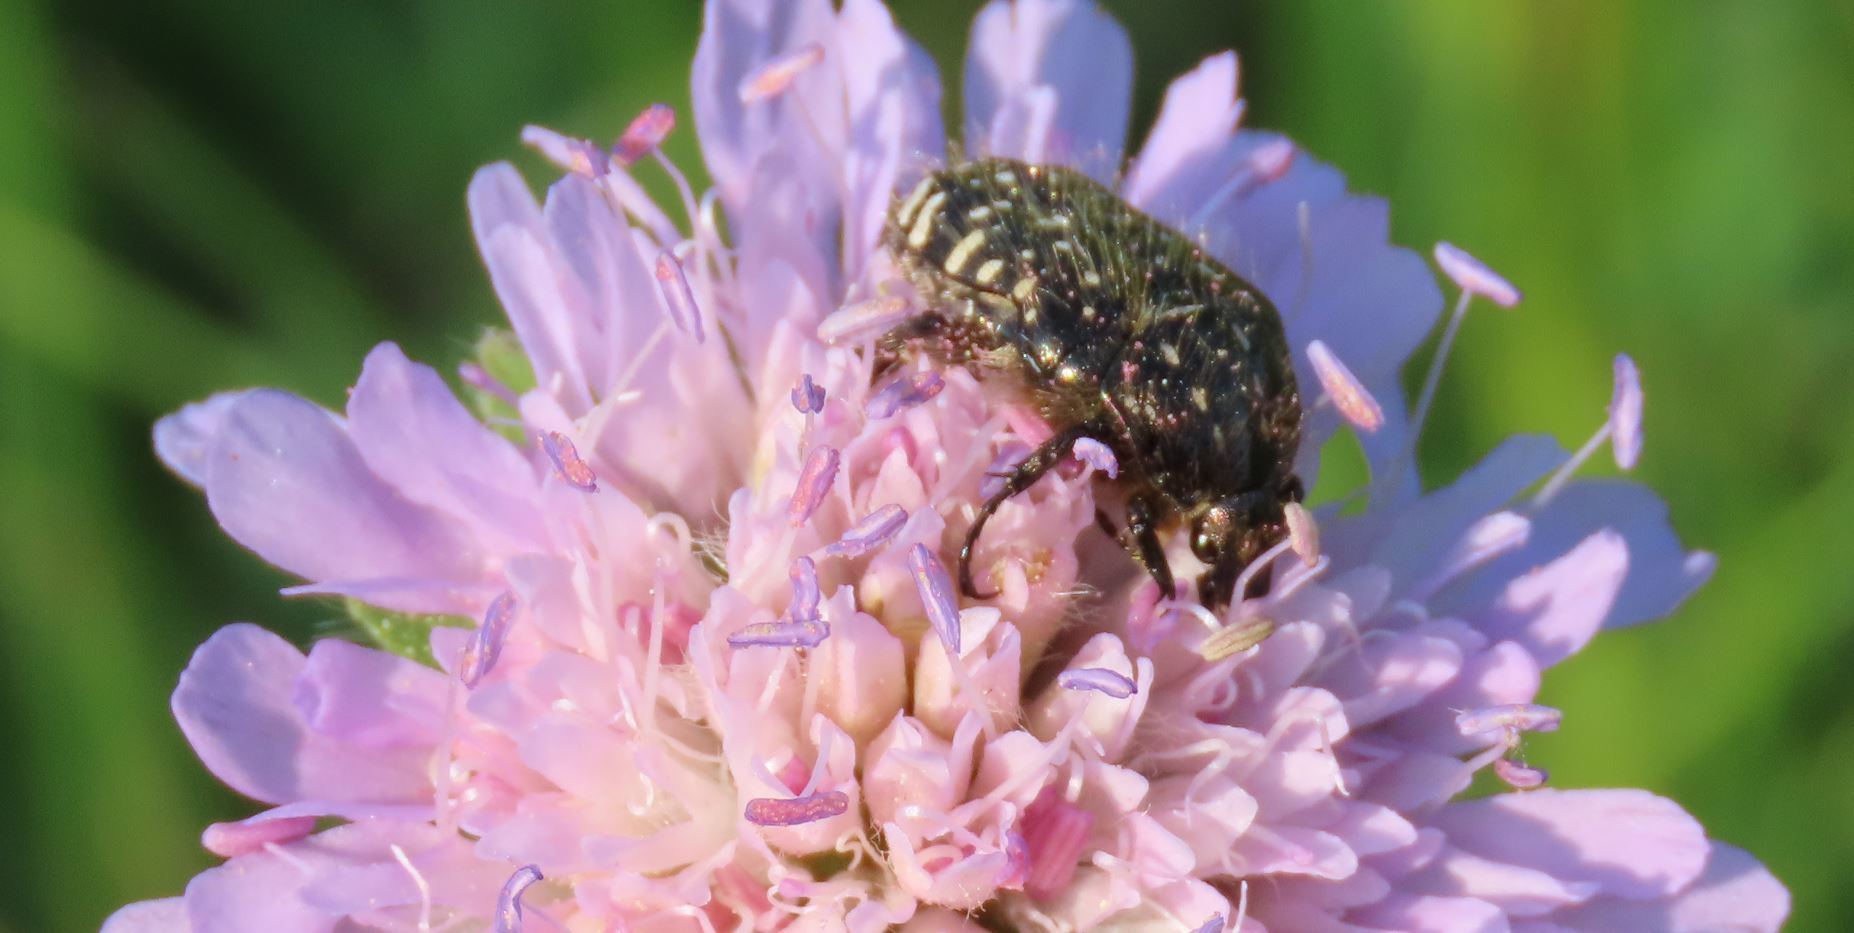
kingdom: Animalia
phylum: Arthropoda
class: Insecta
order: Coleoptera
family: Scarabaeidae
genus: Oxythyrea
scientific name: Oxythyrea funesta
